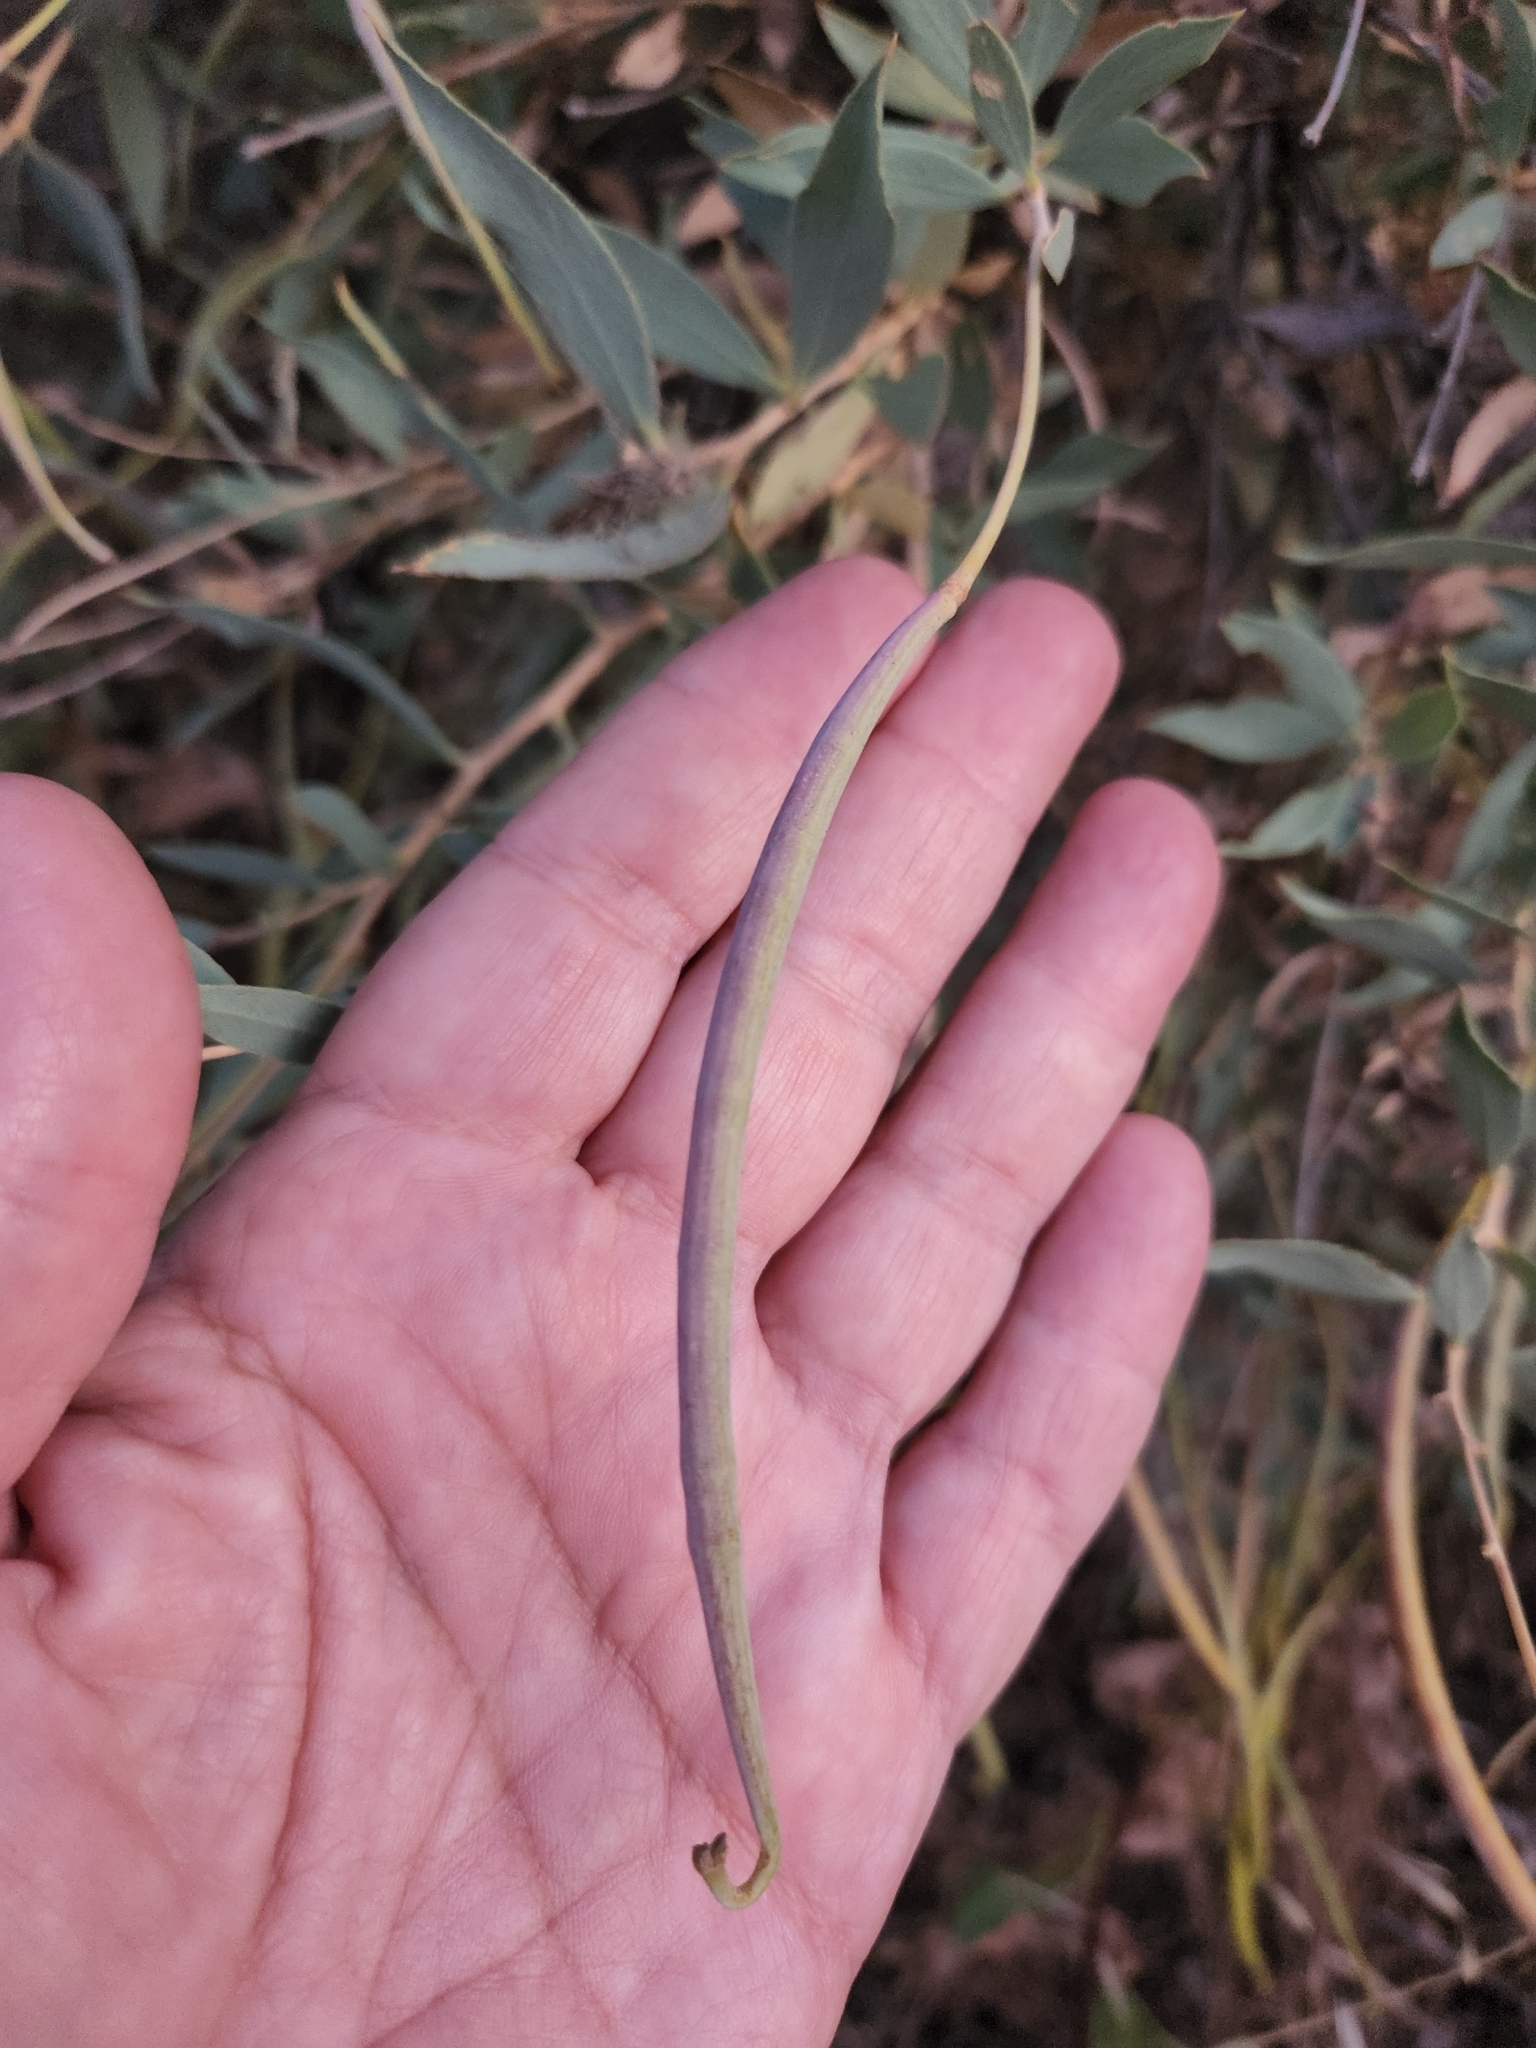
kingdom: Plantae
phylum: Tracheophyta
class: Magnoliopsida
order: Ranunculales
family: Papaveraceae
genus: Dendromecon
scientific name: Dendromecon rigida
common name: Tree poppy
